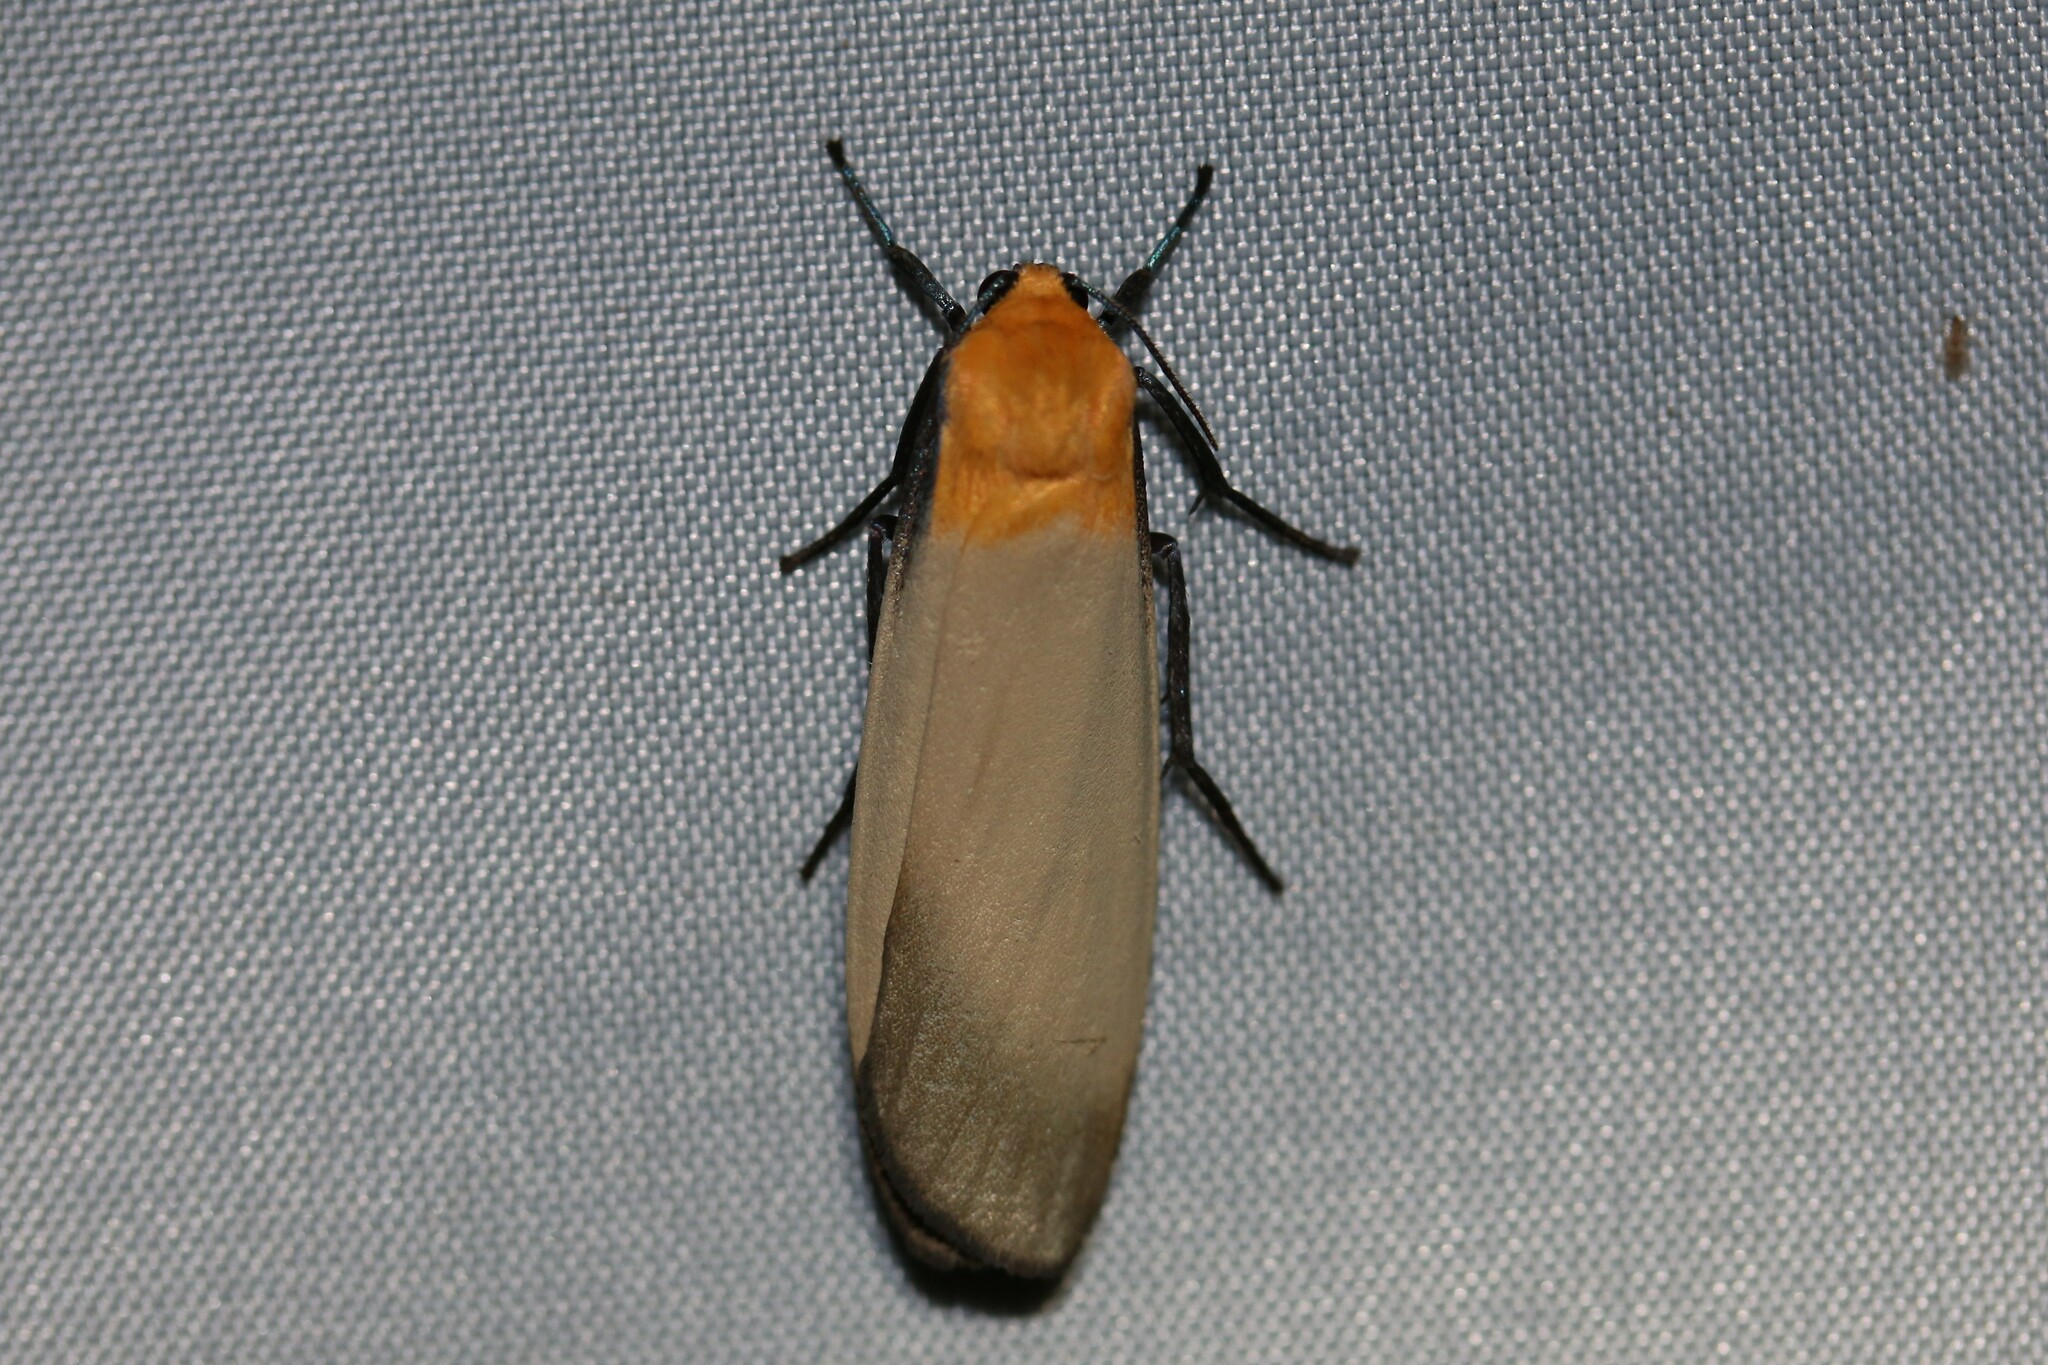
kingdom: Animalia
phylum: Arthropoda
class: Insecta
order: Lepidoptera
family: Erebidae
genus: Lithosia
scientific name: Lithosia quadra
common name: Four-spotted footman
